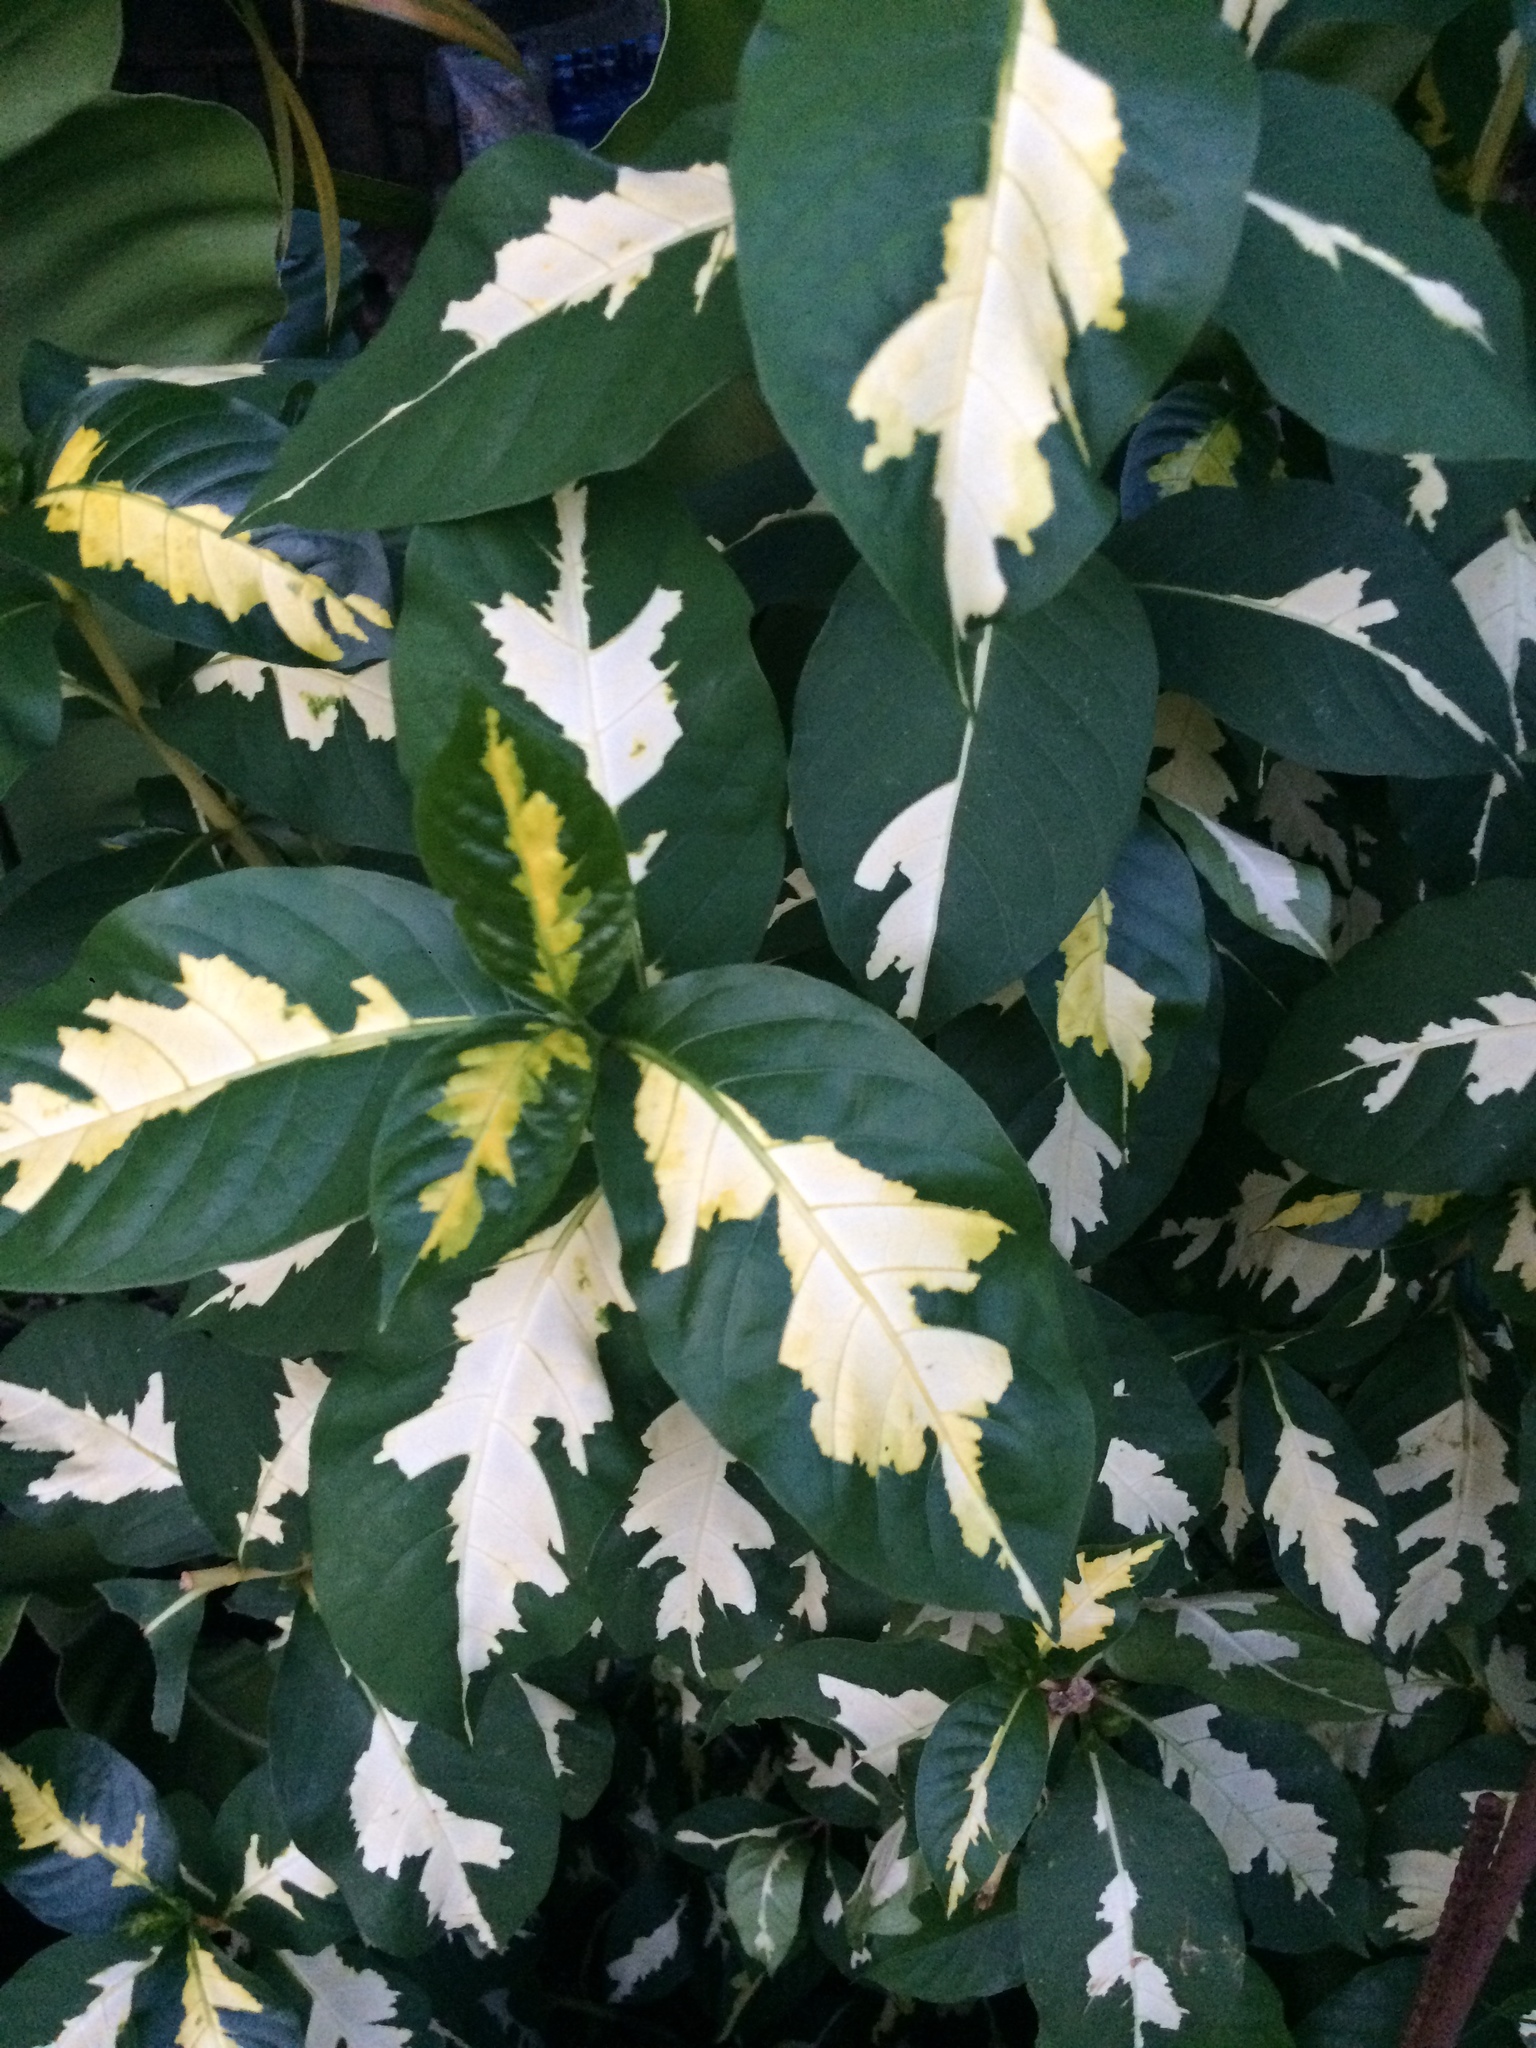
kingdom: Plantae
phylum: Tracheophyta
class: Magnoliopsida
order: Lamiales
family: Acanthaceae
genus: Graptophyllum
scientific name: Graptophyllum pictum
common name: Caricature-plant
